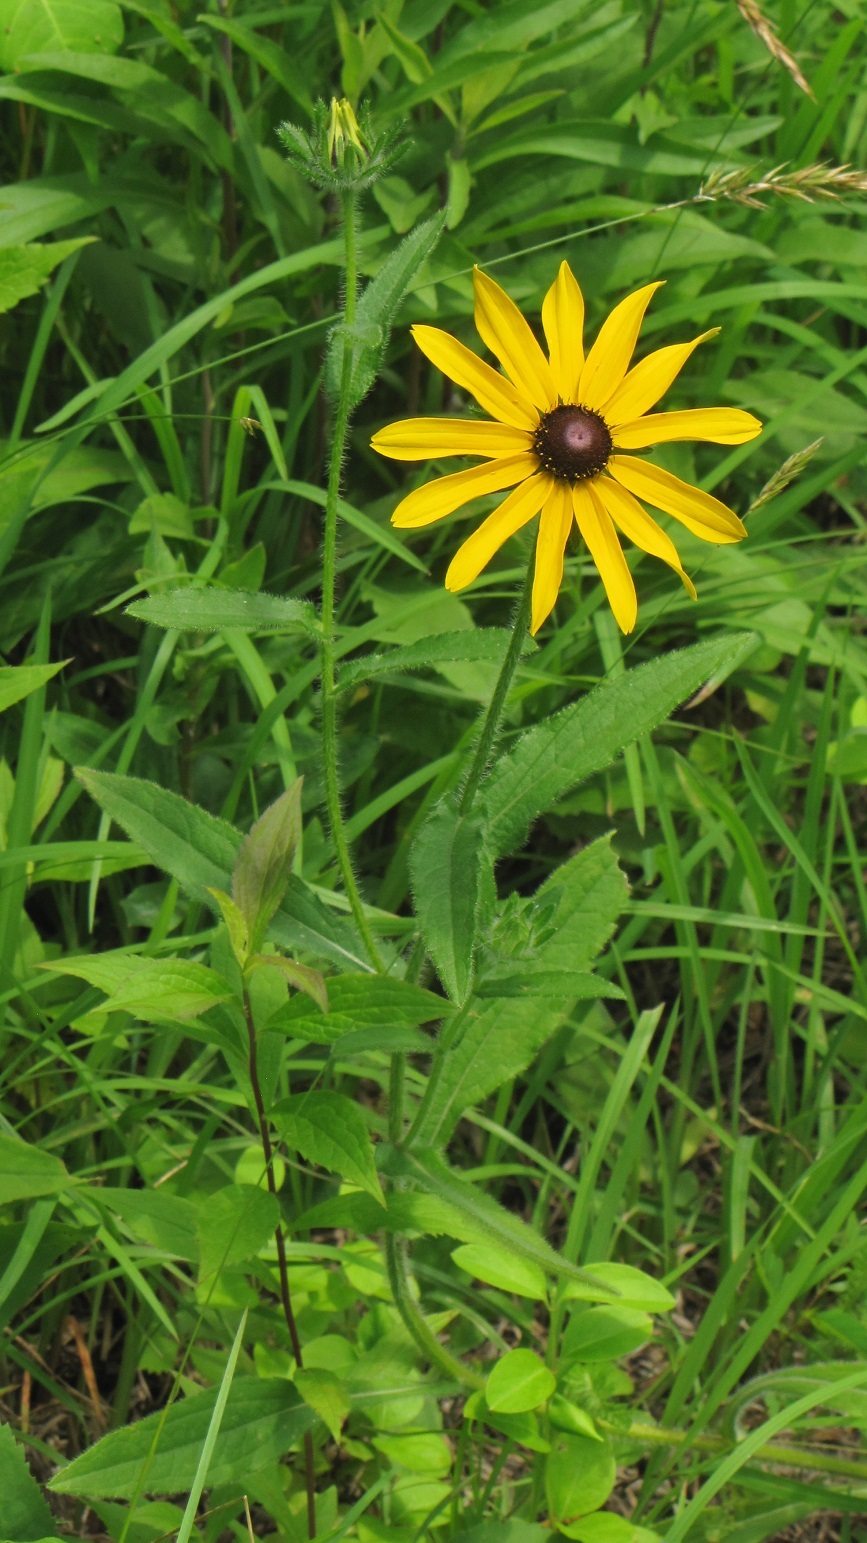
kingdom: Plantae
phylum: Tracheophyta
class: Magnoliopsida
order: Asterales
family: Asteraceae
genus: Rudbeckia
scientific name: Rudbeckia hirta
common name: Black-eyed-susan
